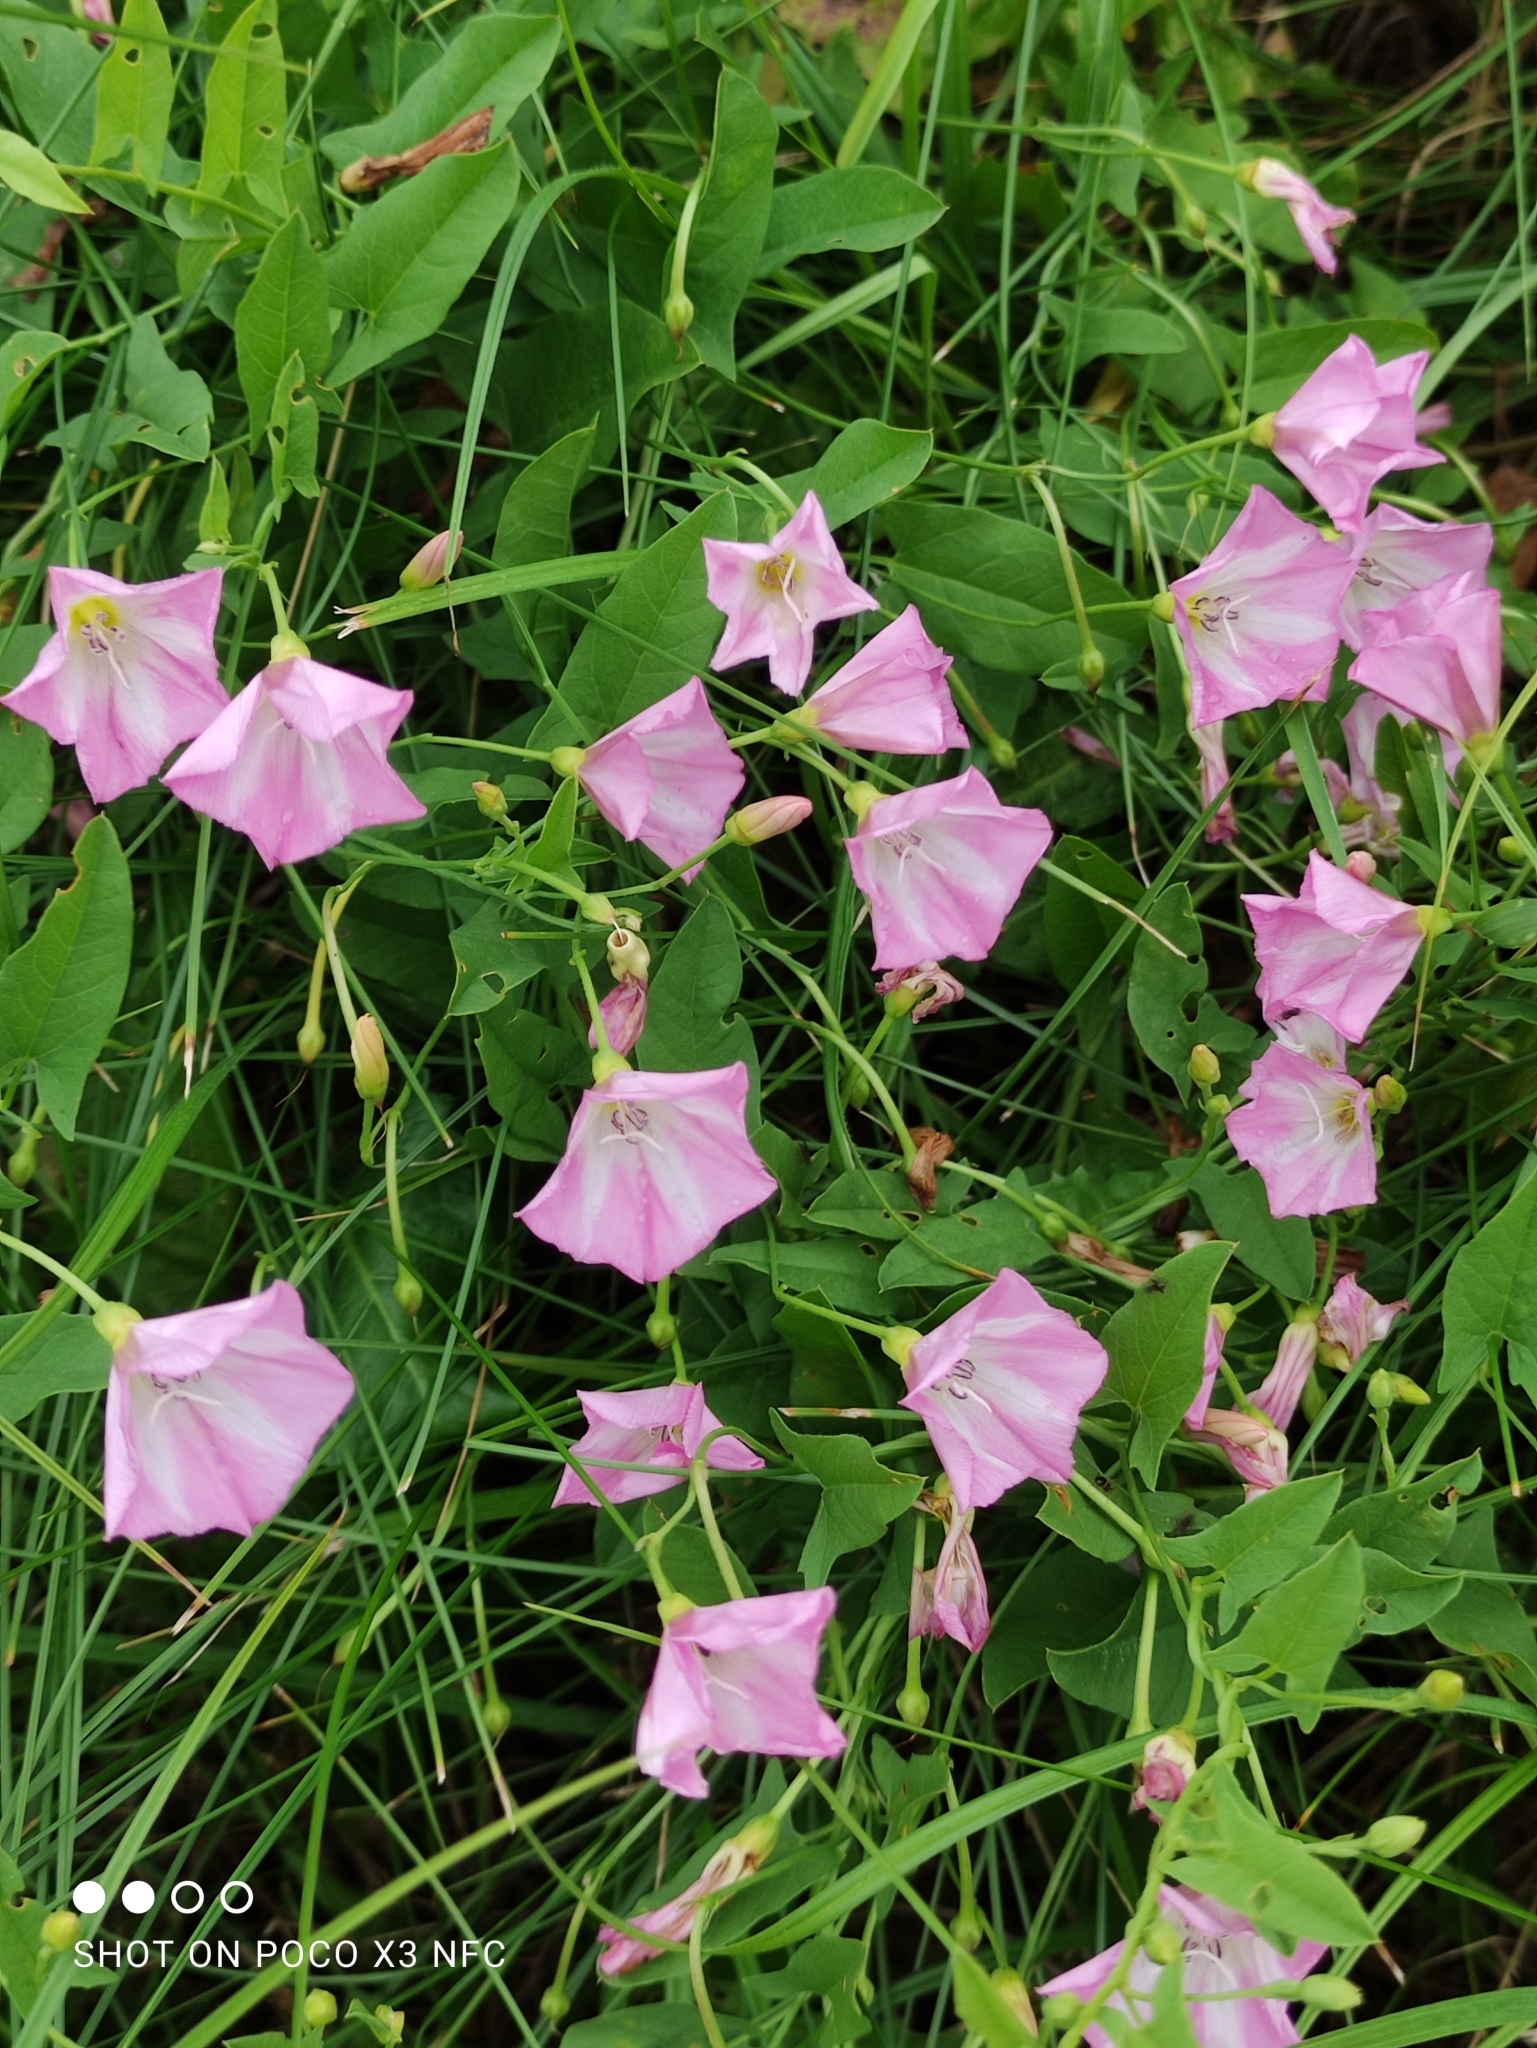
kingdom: Plantae
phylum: Tracheophyta
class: Magnoliopsida
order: Solanales
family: Convolvulaceae
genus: Convolvulus
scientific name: Convolvulus arvensis
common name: Field bindweed
